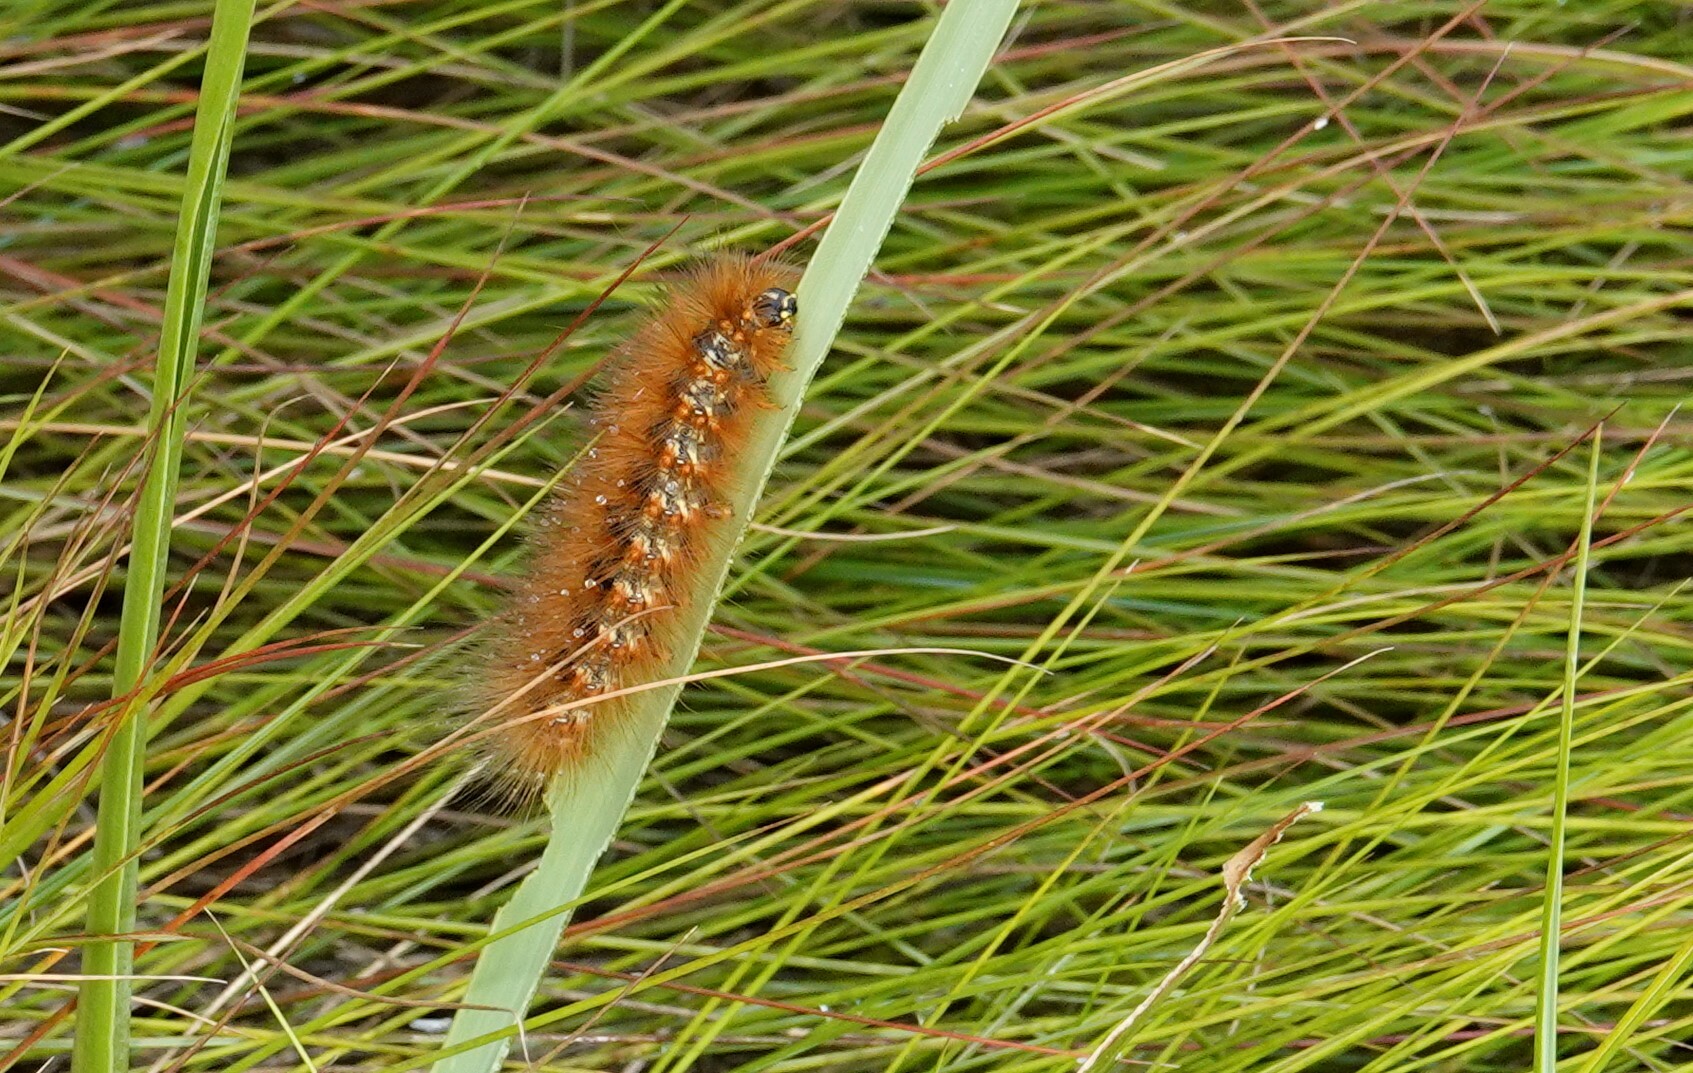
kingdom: Animalia
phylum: Arthropoda
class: Insecta
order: Lepidoptera
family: Erebidae
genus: Estigmene
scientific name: Estigmene acrea
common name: Salt marsh moth
